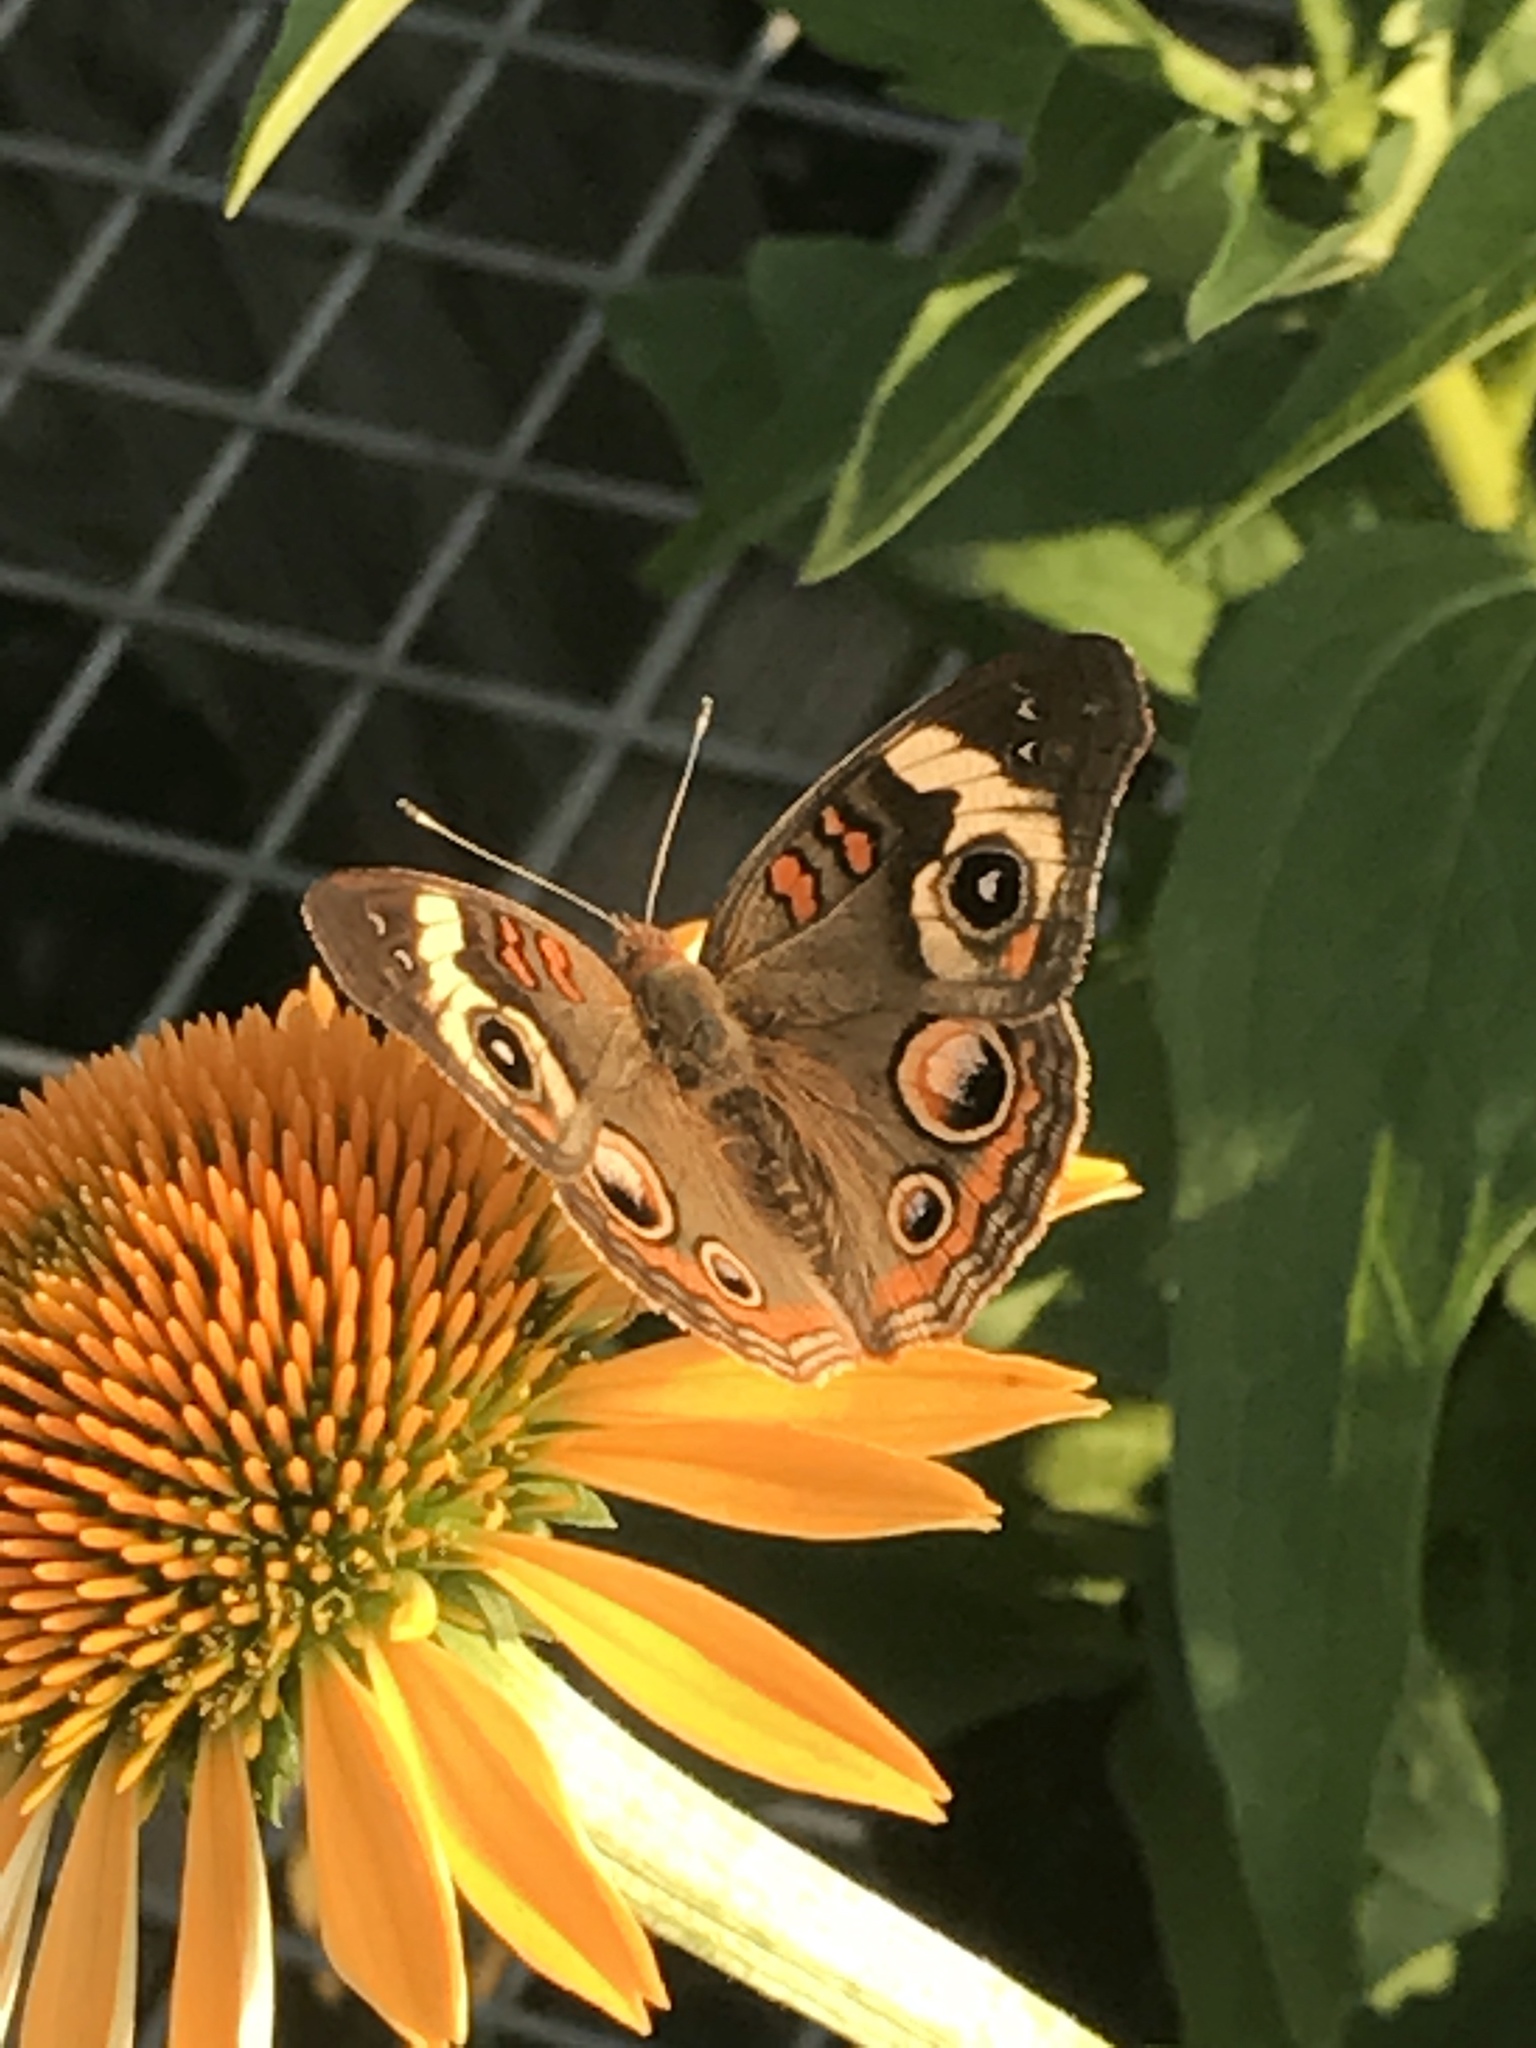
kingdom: Animalia
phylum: Arthropoda
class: Insecta
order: Lepidoptera
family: Nymphalidae
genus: Junonia
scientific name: Junonia coenia
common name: Common buckeye
